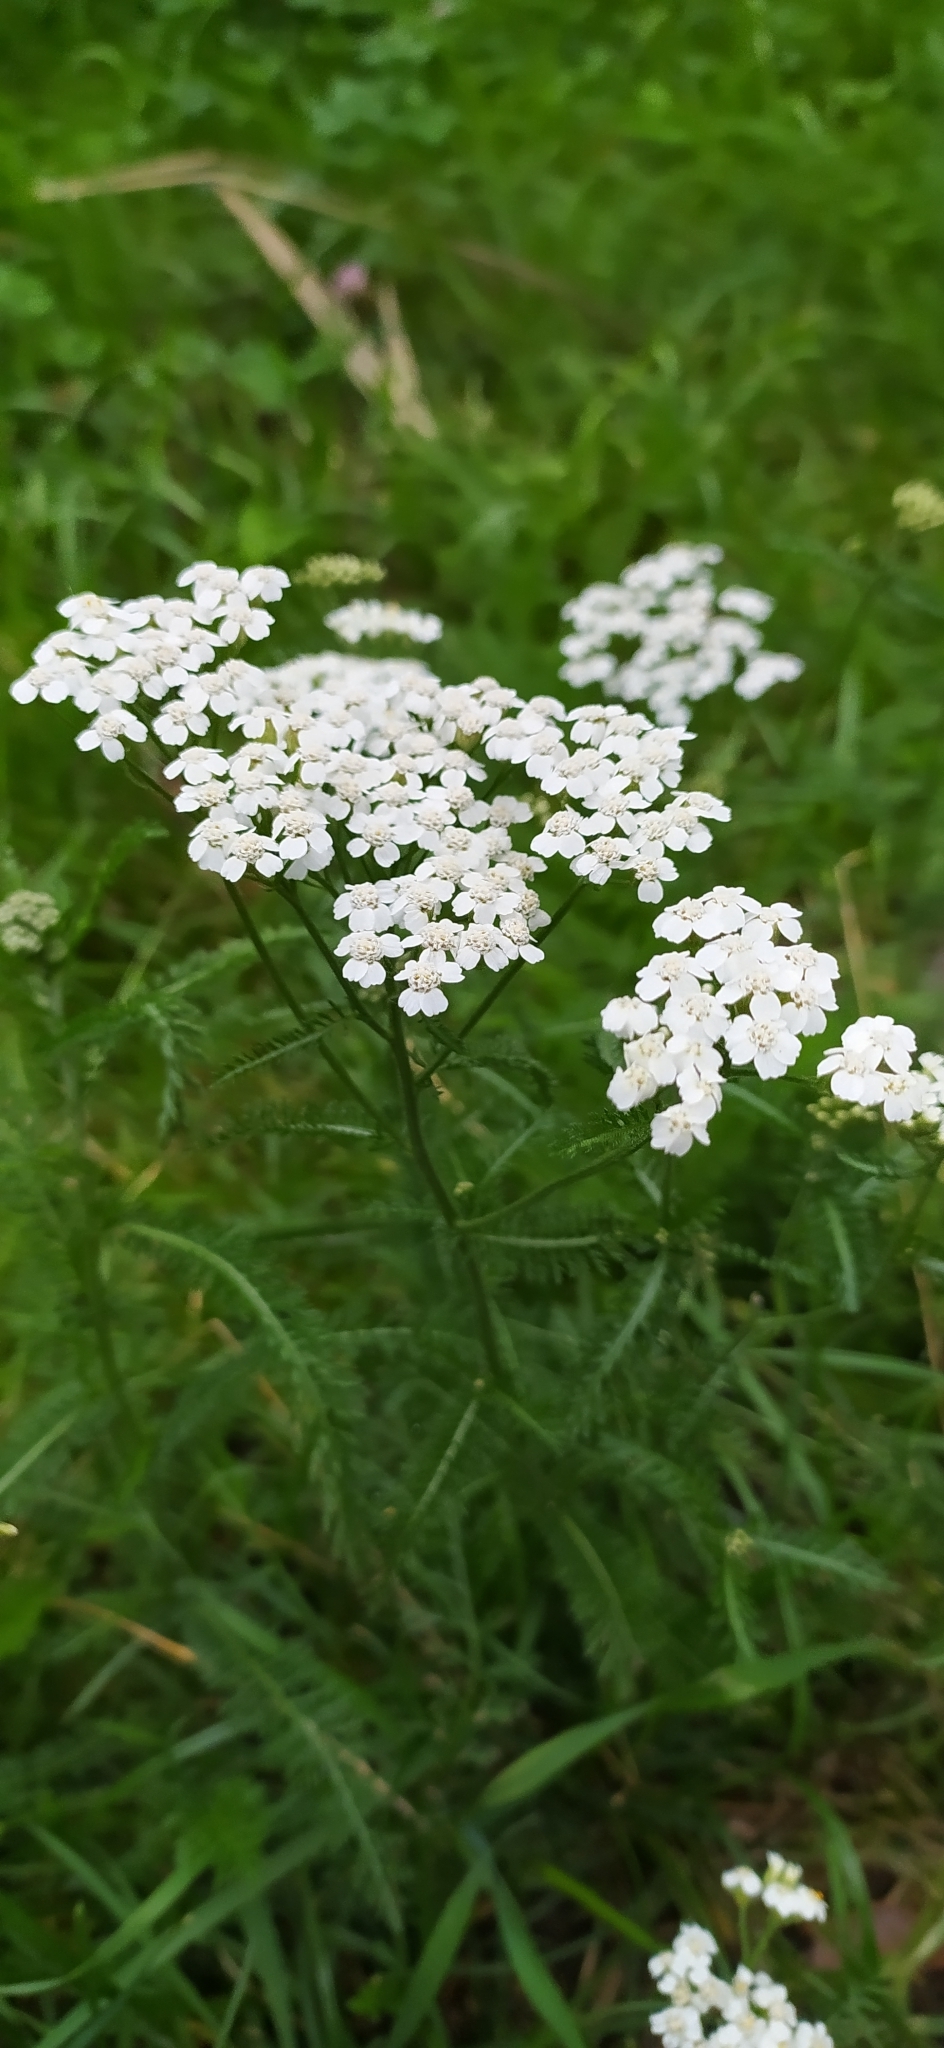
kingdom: Plantae
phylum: Tracheophyta
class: Magnoliopsida
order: Asterales
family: Asteraceae
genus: Achillea
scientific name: Achillea millefolium
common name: Yarrow
